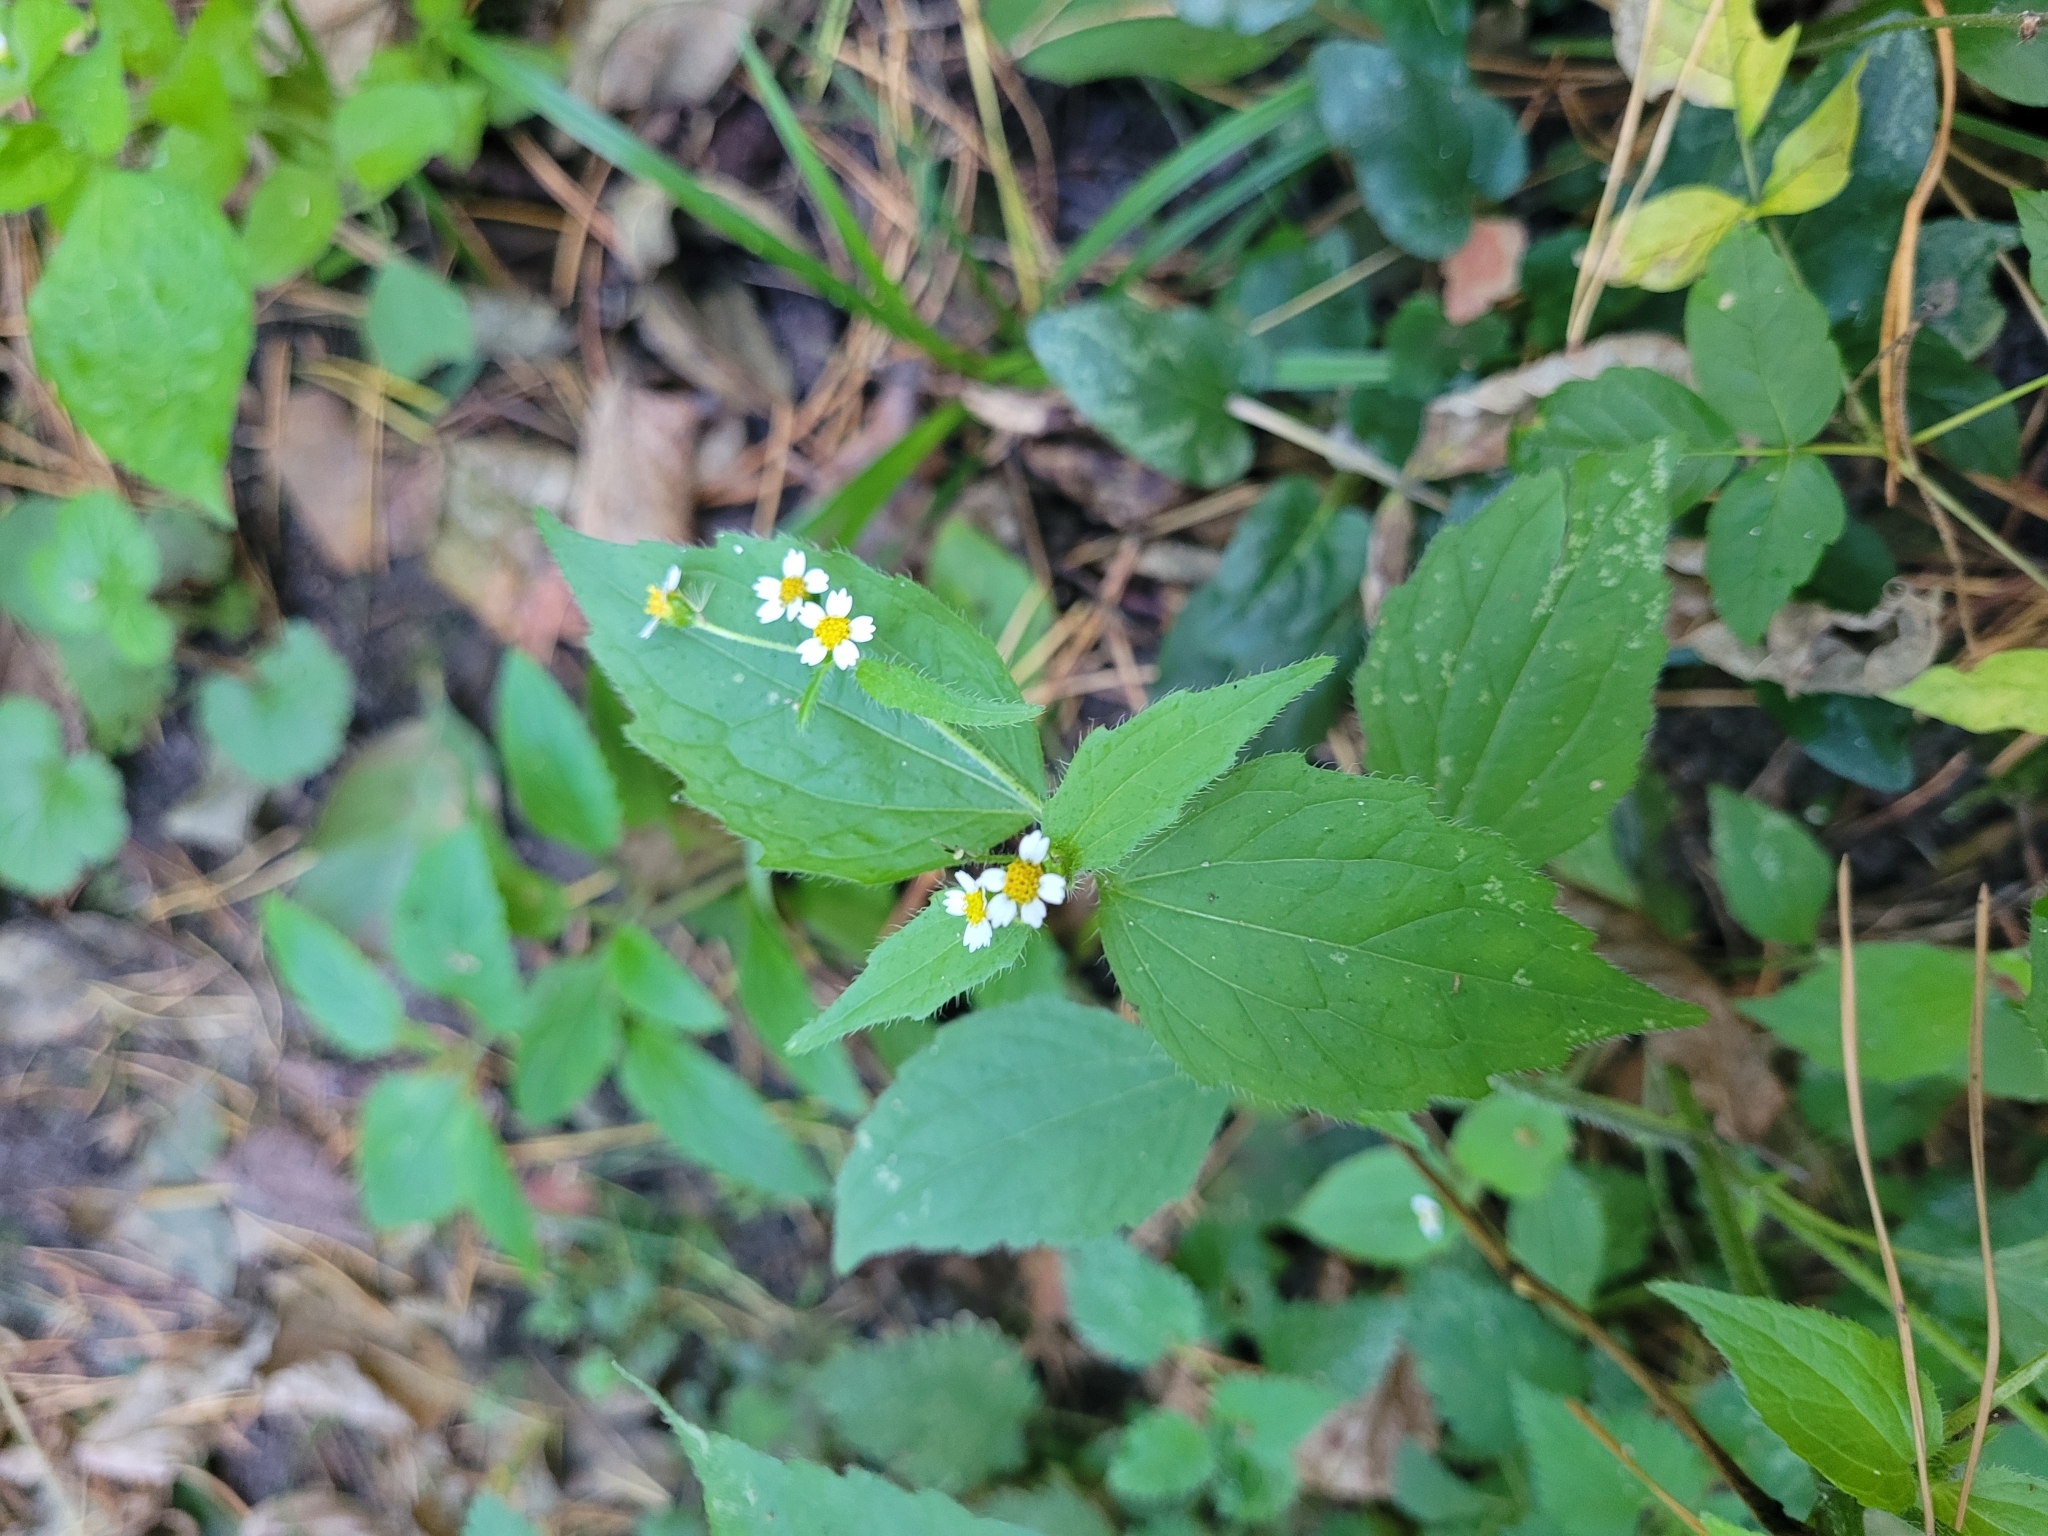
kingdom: Plantae
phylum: Tracheophyta
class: Magnoliopsida
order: Asterales
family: Asteraceae
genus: Galinsoga
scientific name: Galinsoga quadriradiata
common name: Shaggy soldier
